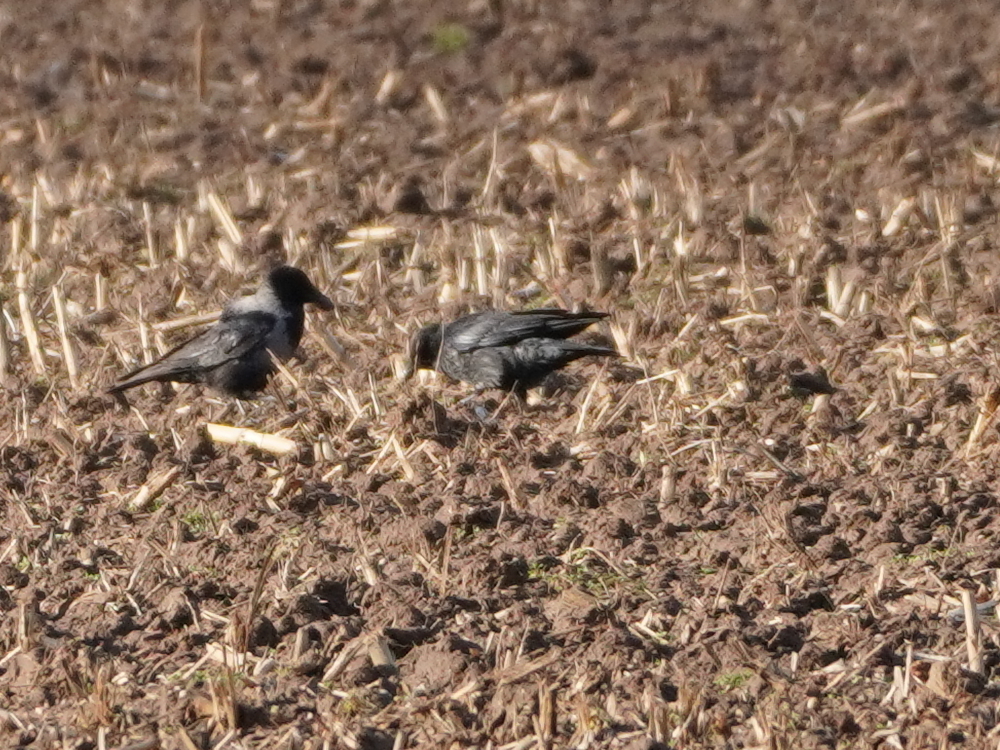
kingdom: Animalia
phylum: Chordata
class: Aves
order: Passeriformes
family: Corvidae
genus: Corvus
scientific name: Corvus corone
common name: Carrion crow
